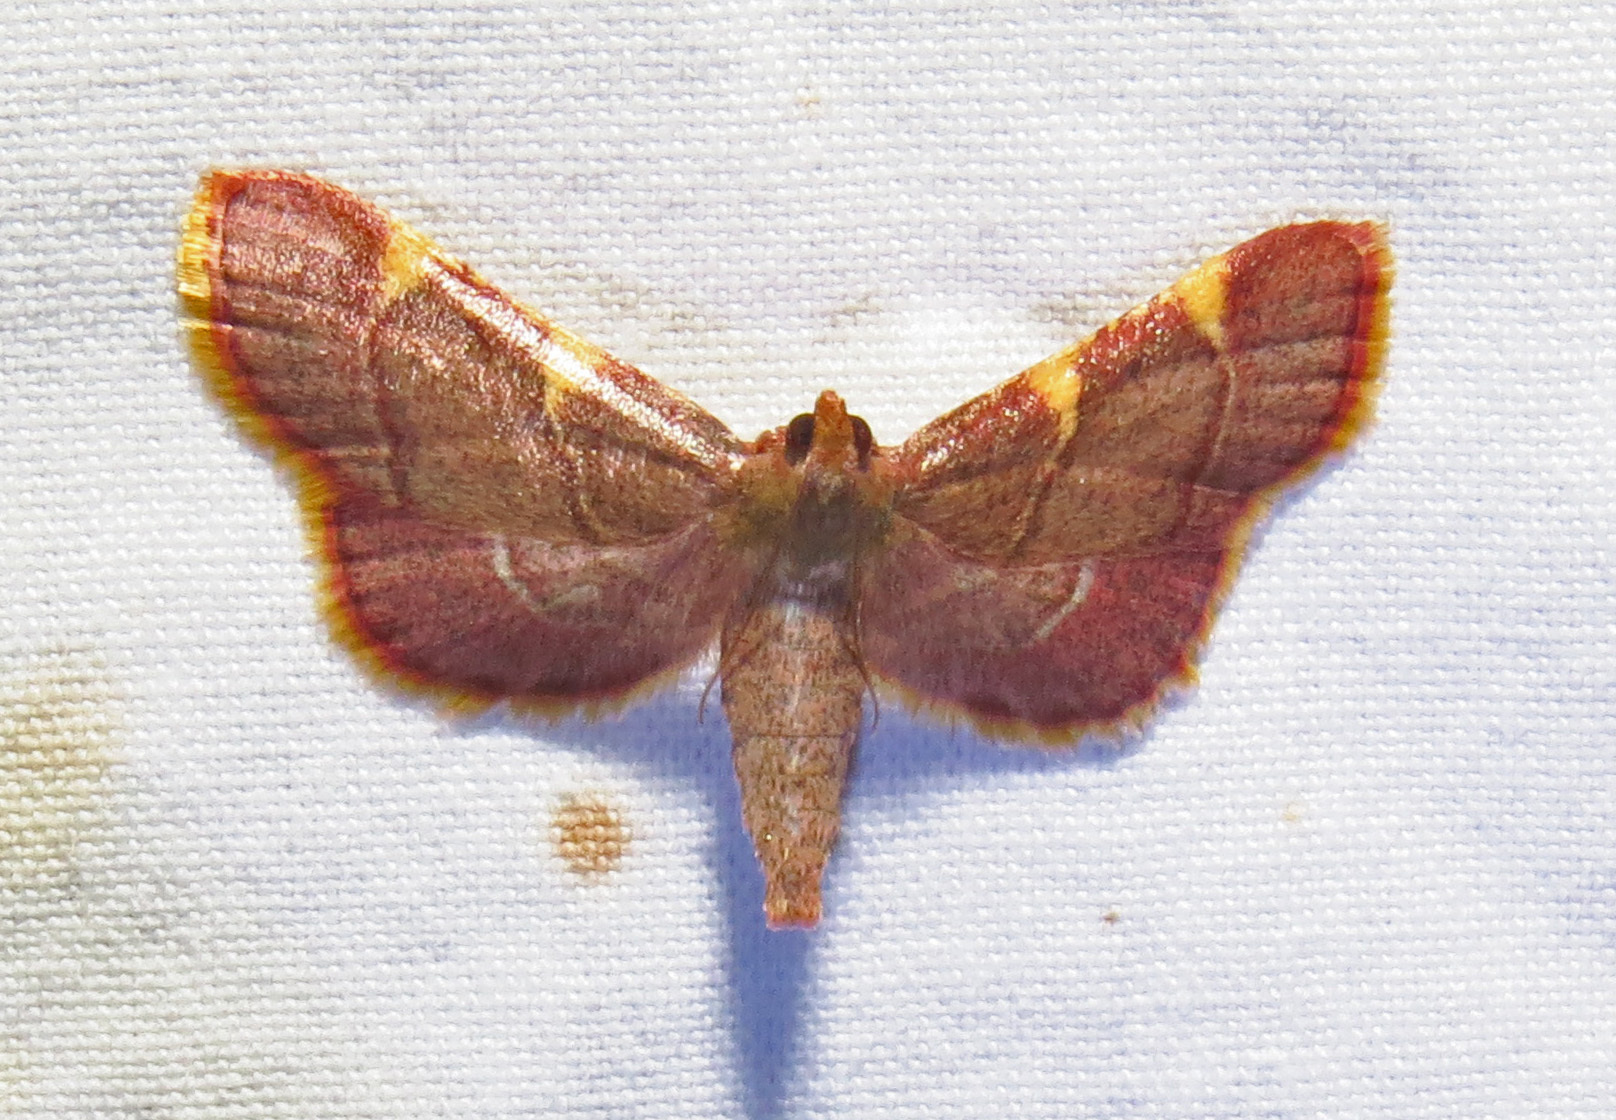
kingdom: Animalia
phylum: Arthropoda
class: Insecta
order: Lepidoptera
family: Pyralidae
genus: Hypsopygia
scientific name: Hypsopygia olinalis
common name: Yellow-fringed dolichomia moth
